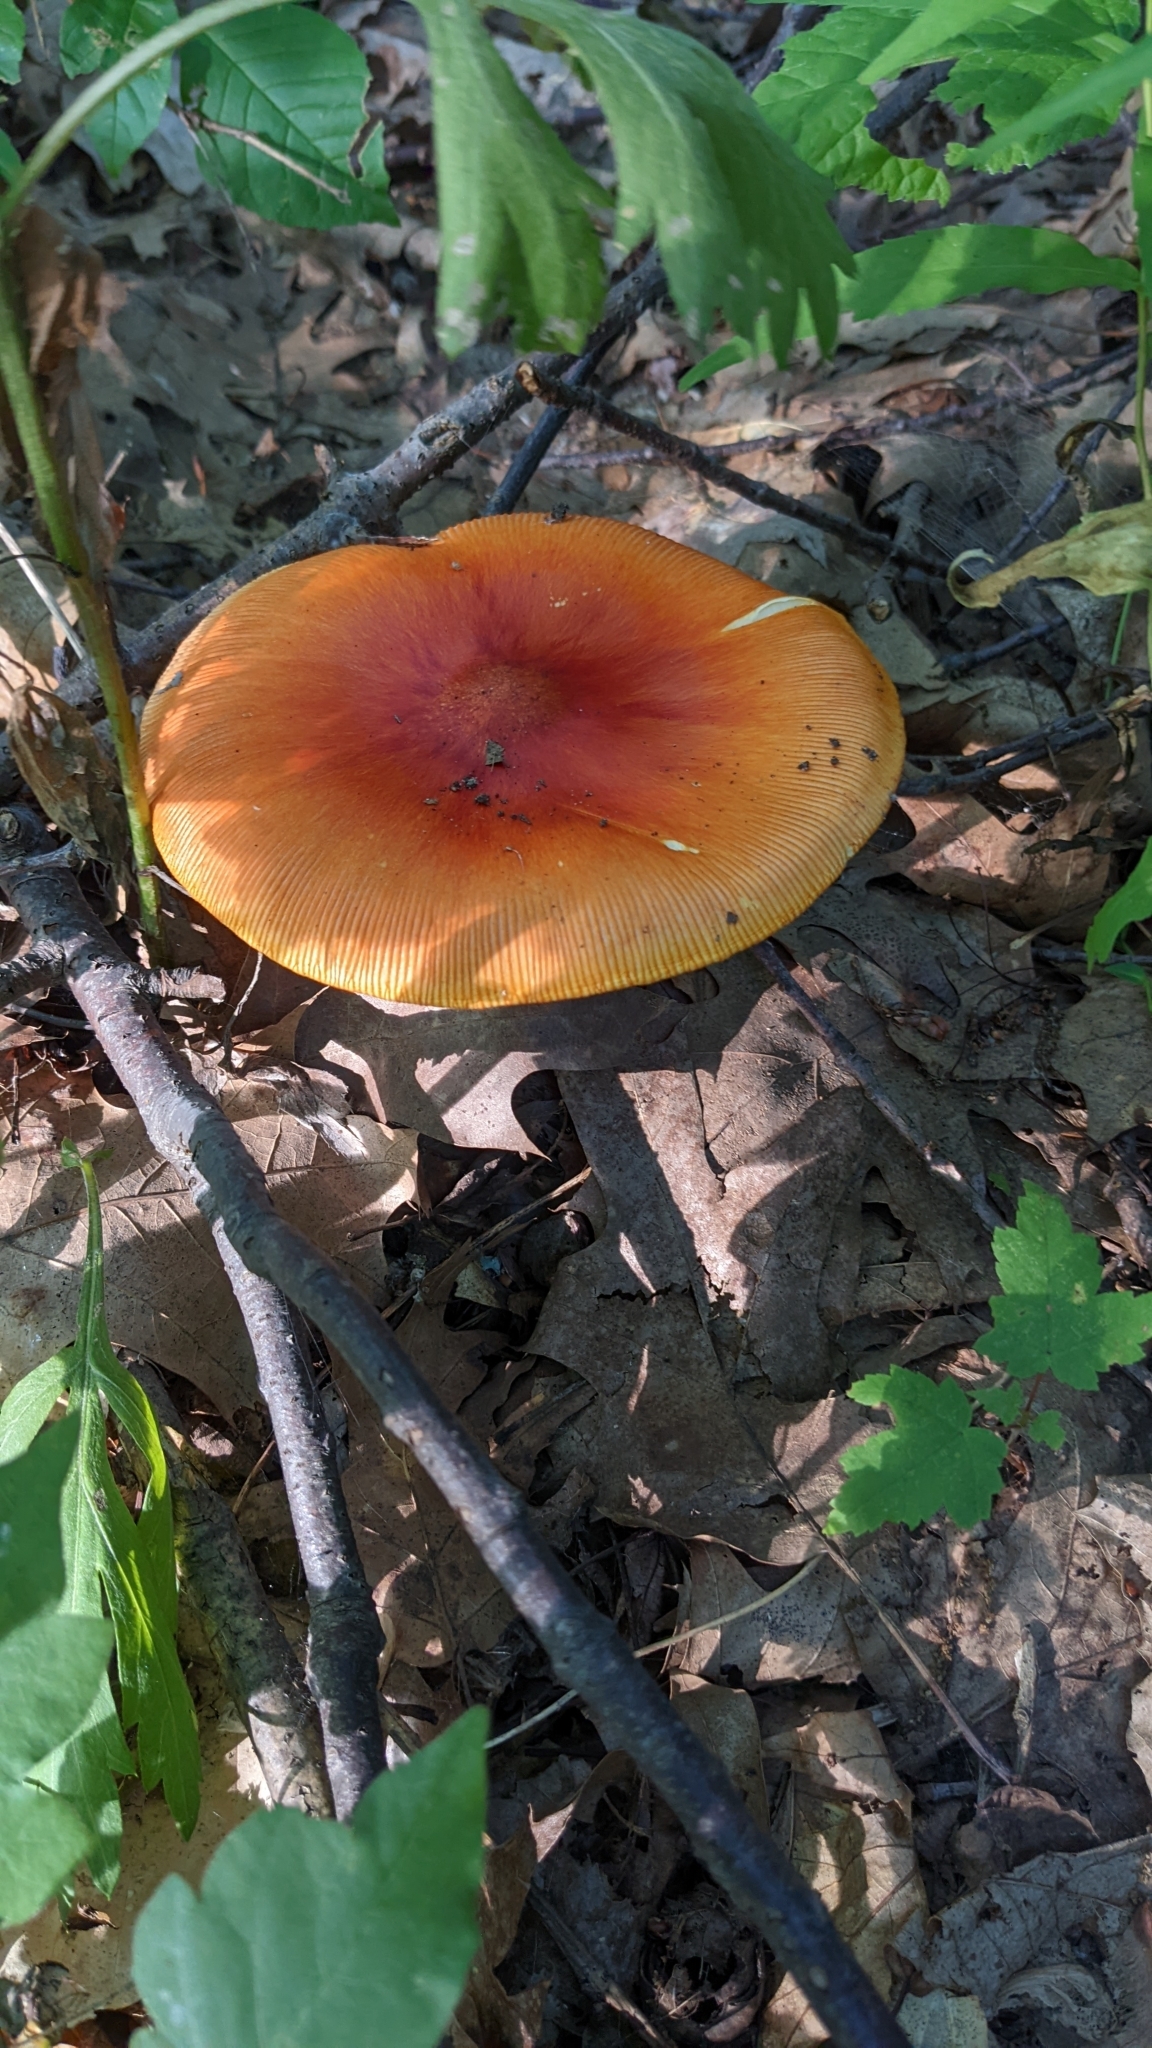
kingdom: Fungi
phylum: Basidiomycota
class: Agaricomycetes
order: Agaricales
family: Amanitaceae
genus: Amanita
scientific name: Amanita jacksonii
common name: Jackson's slender caesar
